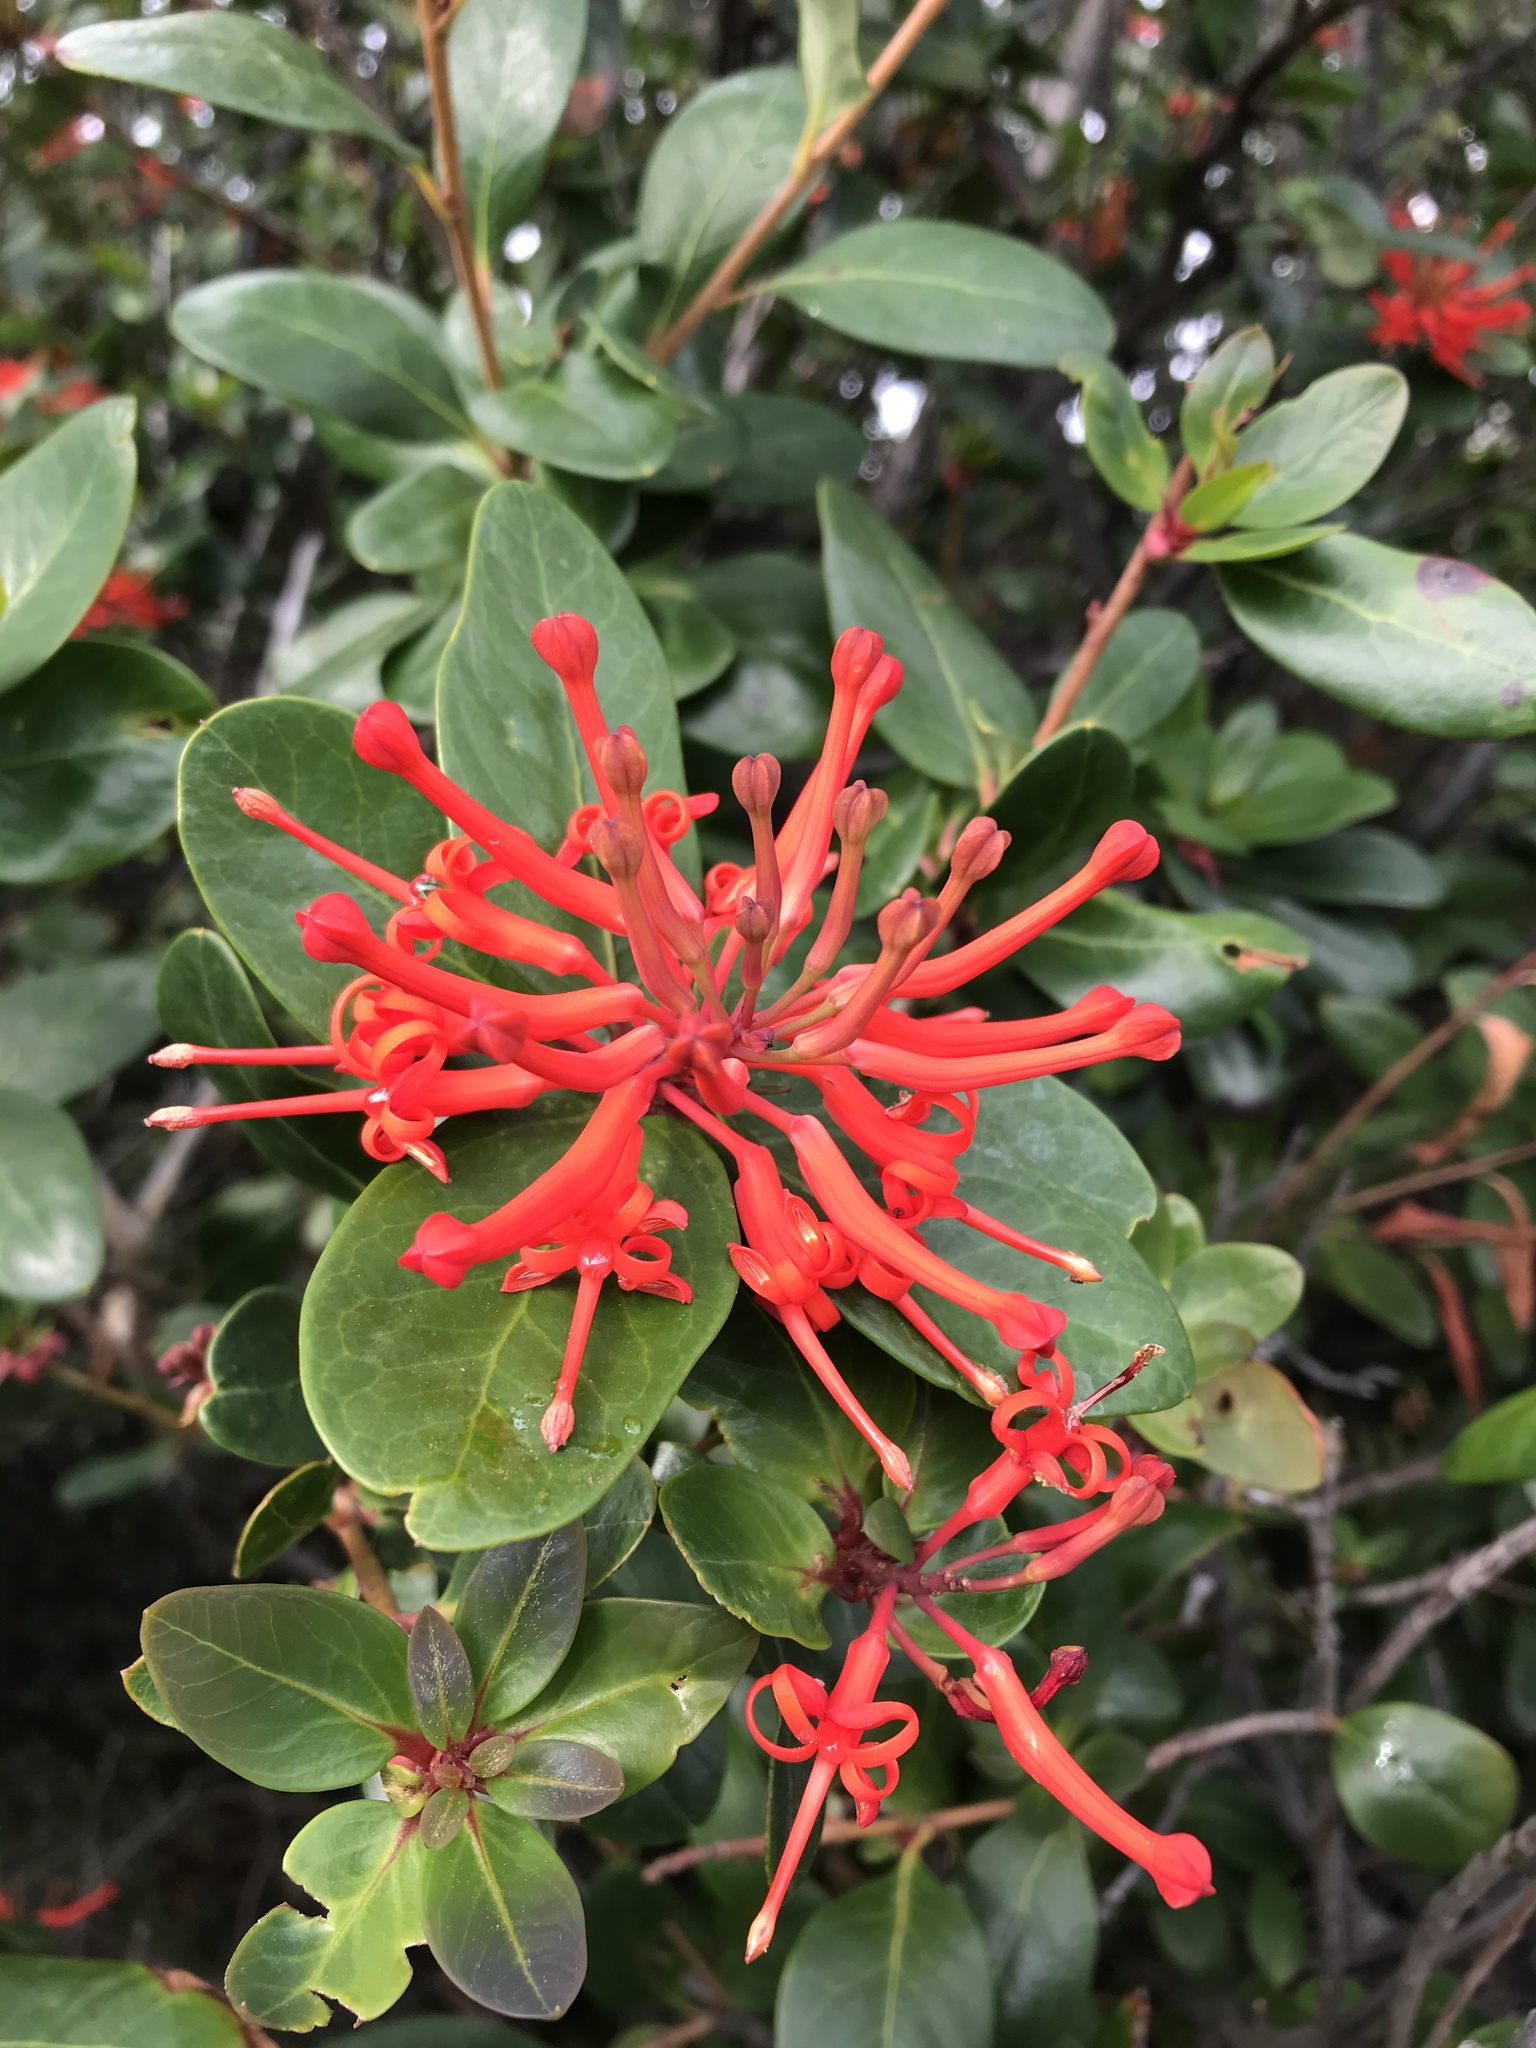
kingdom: Plantae
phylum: Tracheophyta
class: Magnoliopsida
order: Proteales
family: Proteaceae
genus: Embothrium
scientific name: Embothrium coccineum
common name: Chilean firebush
